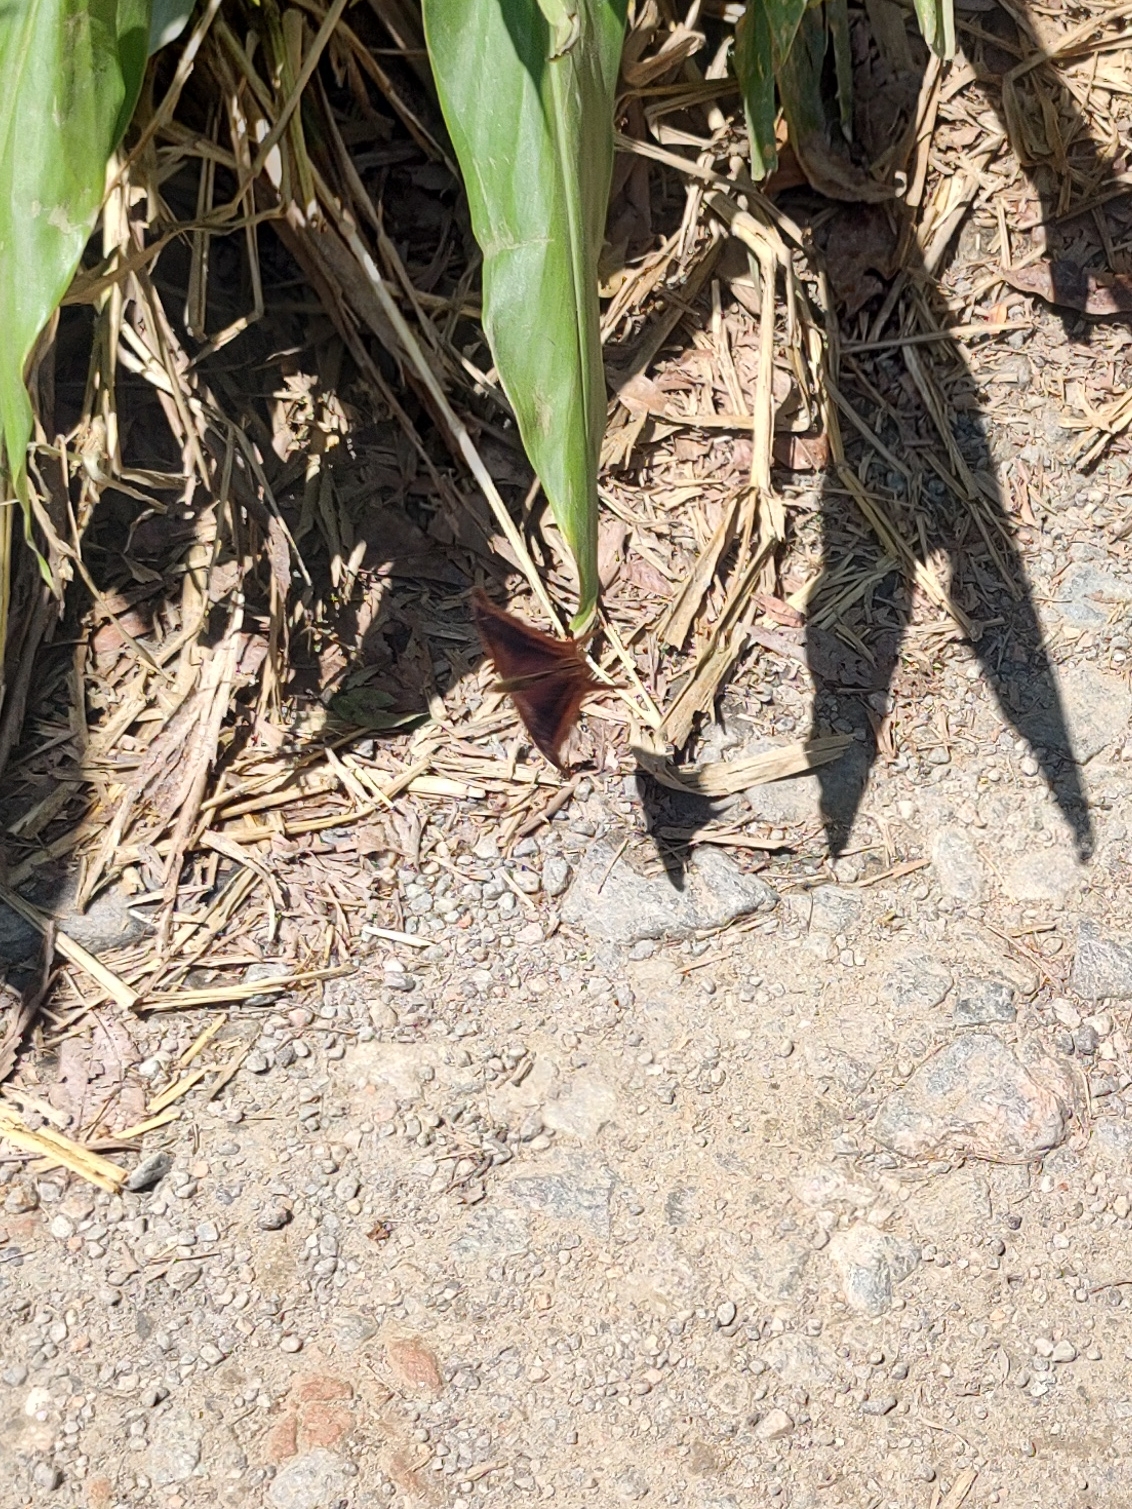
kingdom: Animalia
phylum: Arthropoda
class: Insecta
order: Lepidoptera
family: Nymphalidae
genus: Marpesia
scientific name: Marpesia zerynthia
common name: Waiter daggerwing
